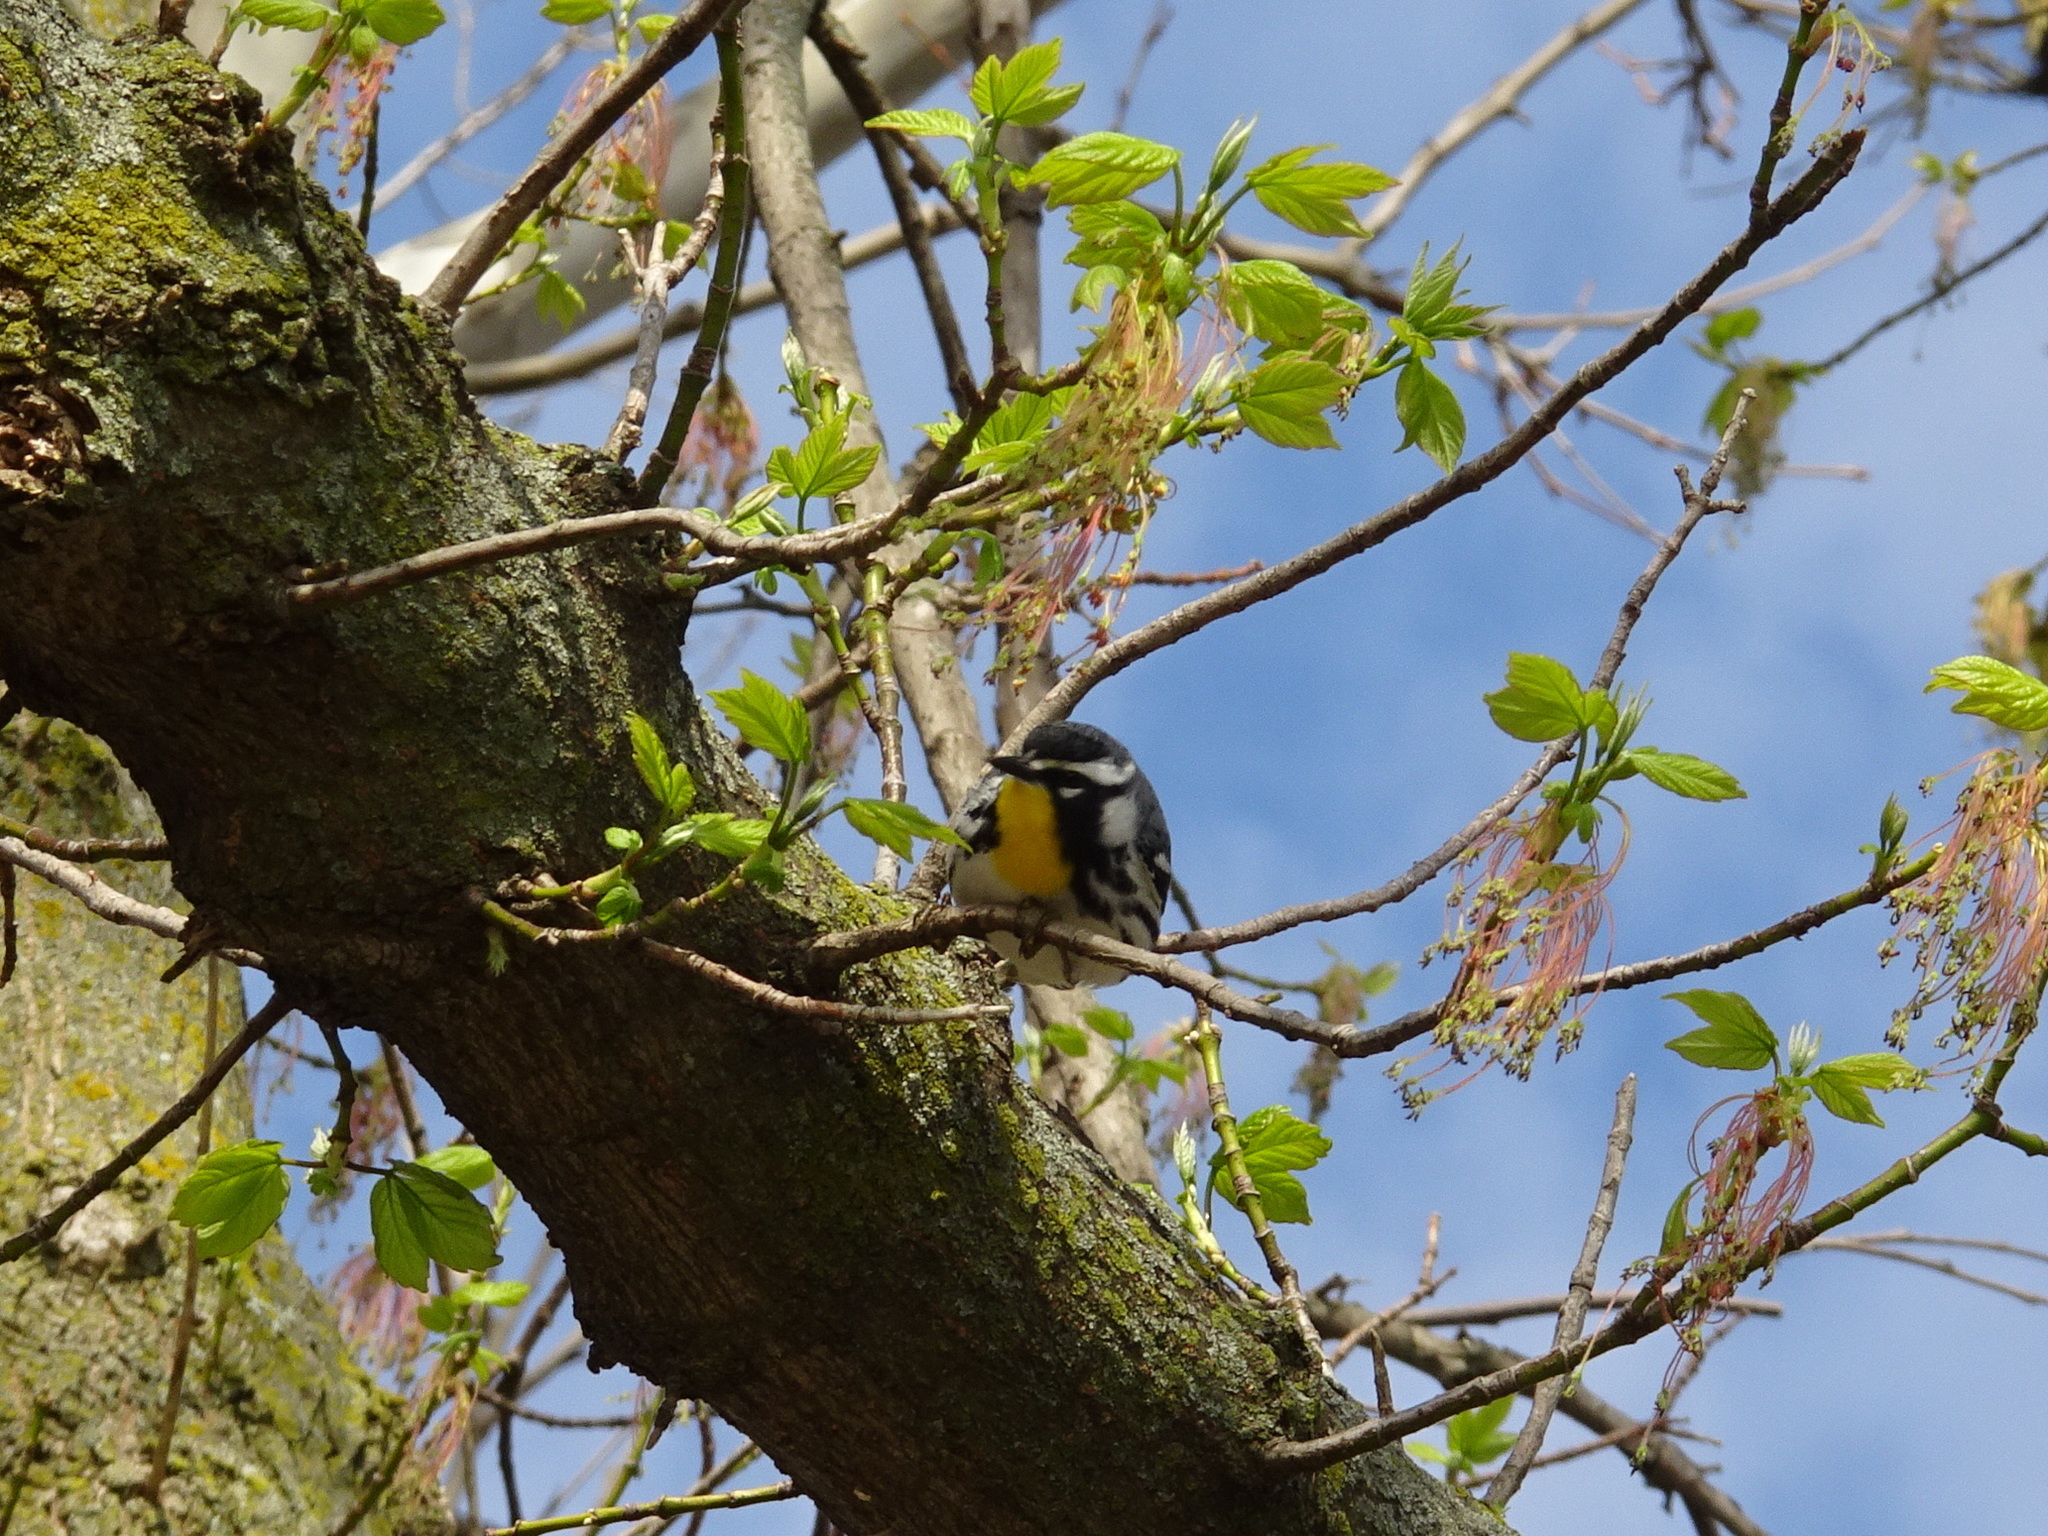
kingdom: Animalia
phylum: Chordata
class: Aves
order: Passeriformes
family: Parulidae
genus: Setophaga
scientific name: Setophaga dominica
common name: Yellow-throated warbler
